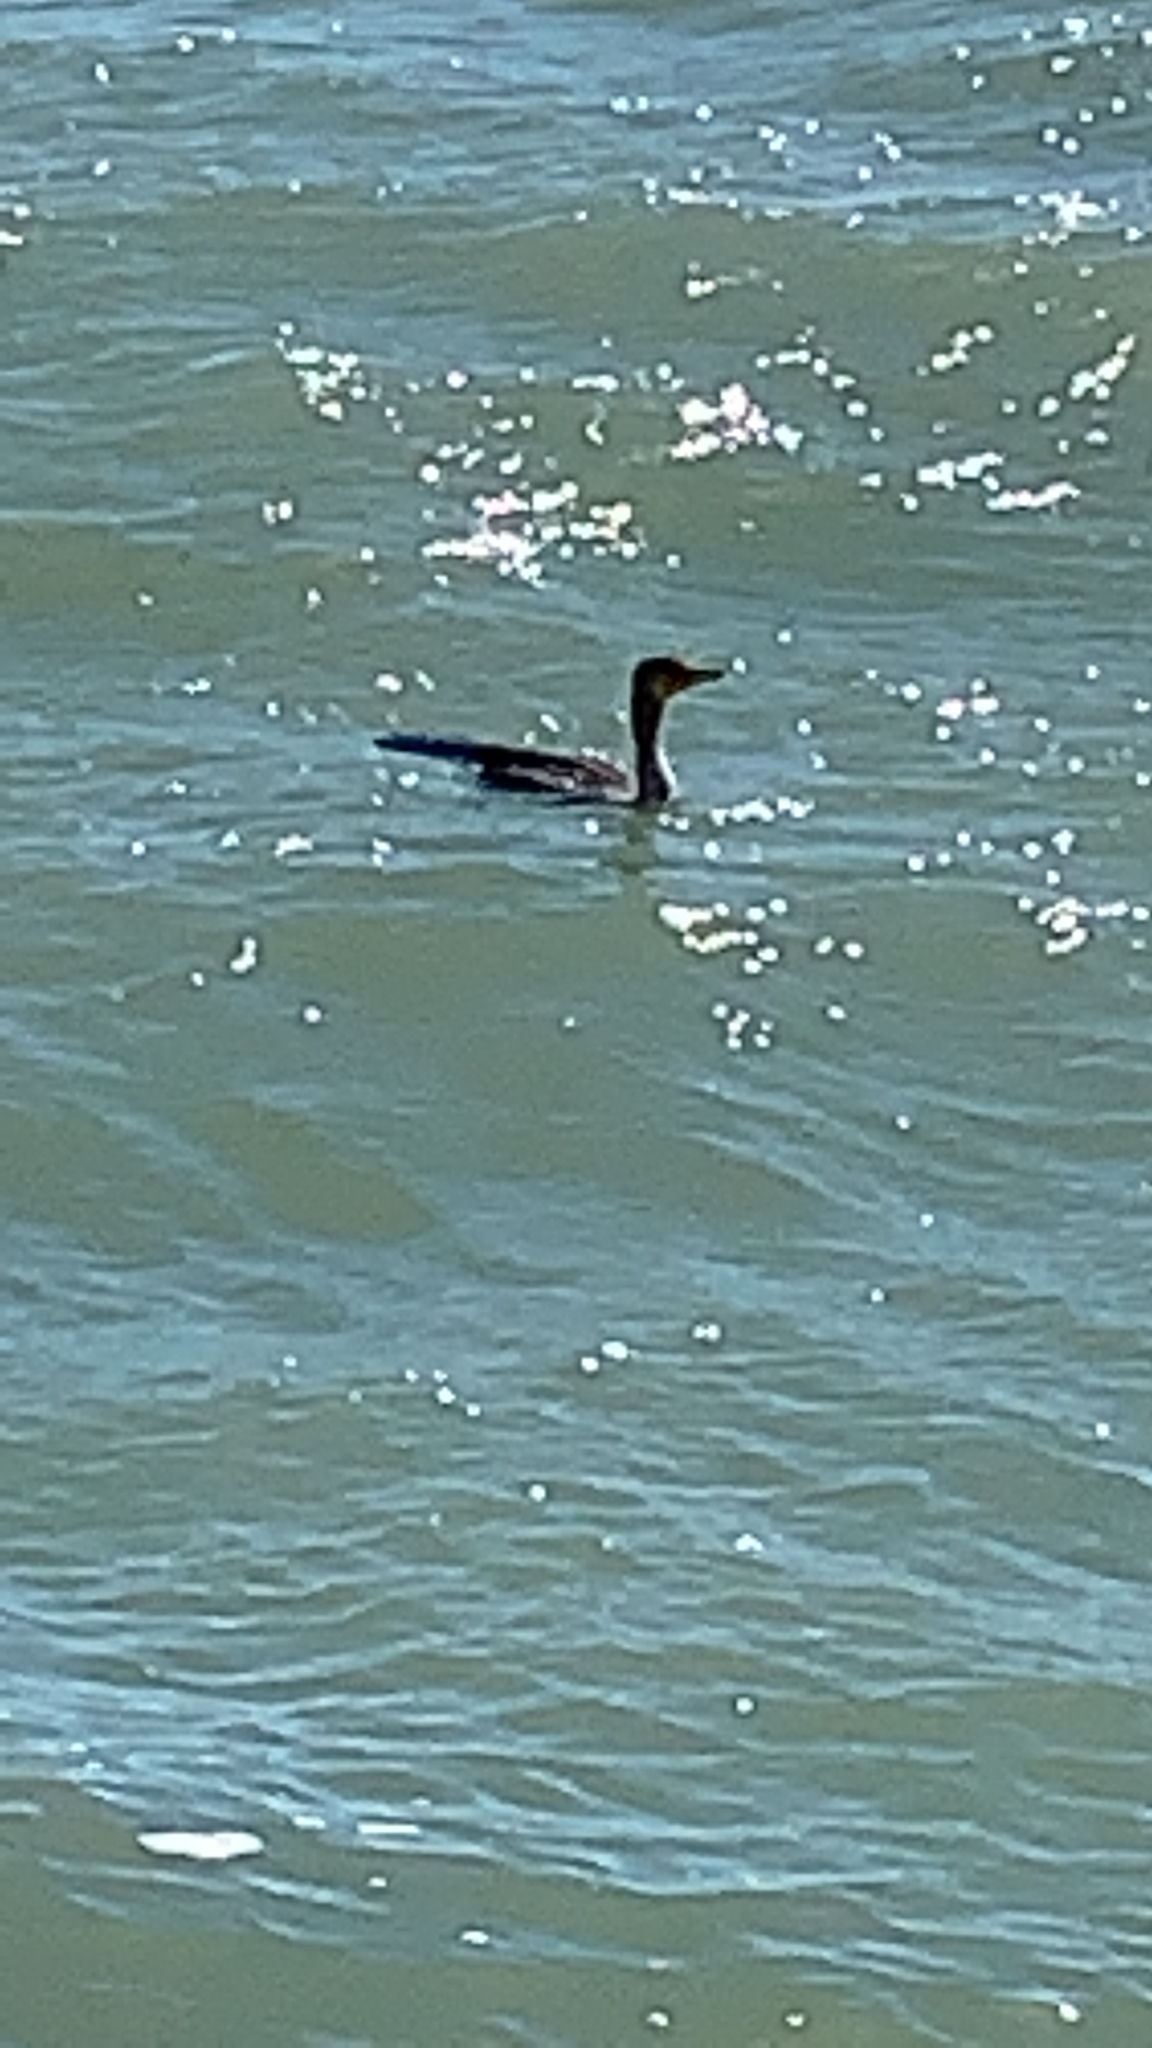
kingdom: Animalia
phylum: Chordata
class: Aves
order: Suliformes
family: Phalacrocoracidae
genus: Phalacrocorax
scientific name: Phalacrocorax auritus
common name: Double-crested cormorant
